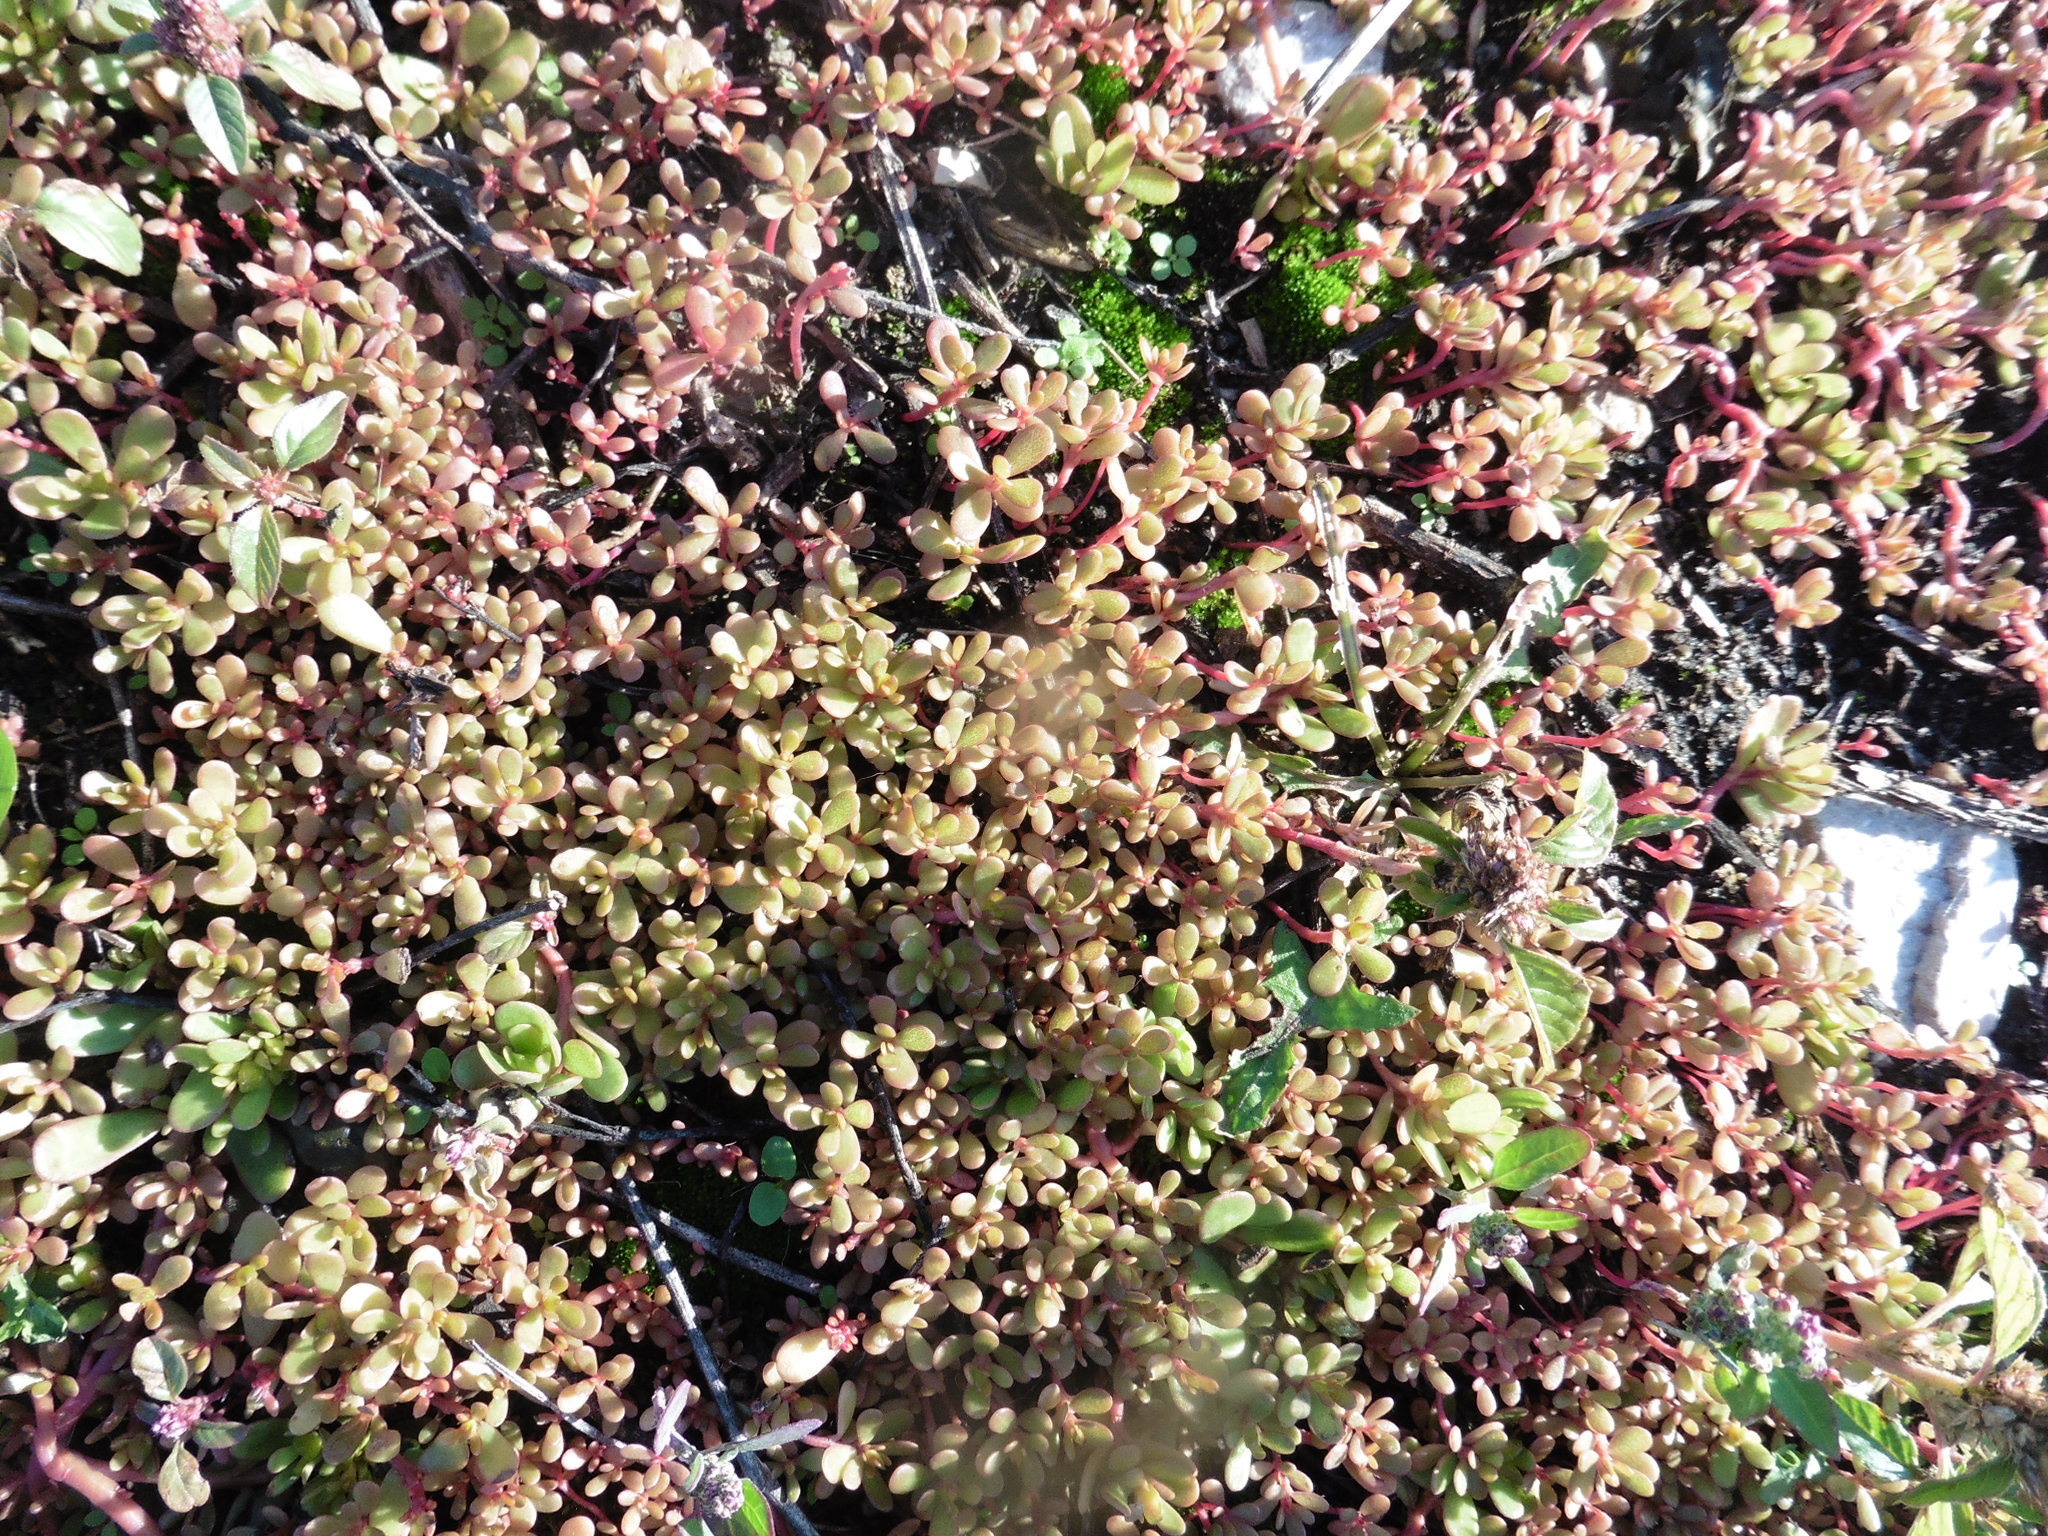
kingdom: Plantae
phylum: Tracheophyta
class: Magnoliopsida
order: Caryophyllales
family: Portulacaceae
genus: Portulaca
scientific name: Portulaca oleracea
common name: Common purslane
